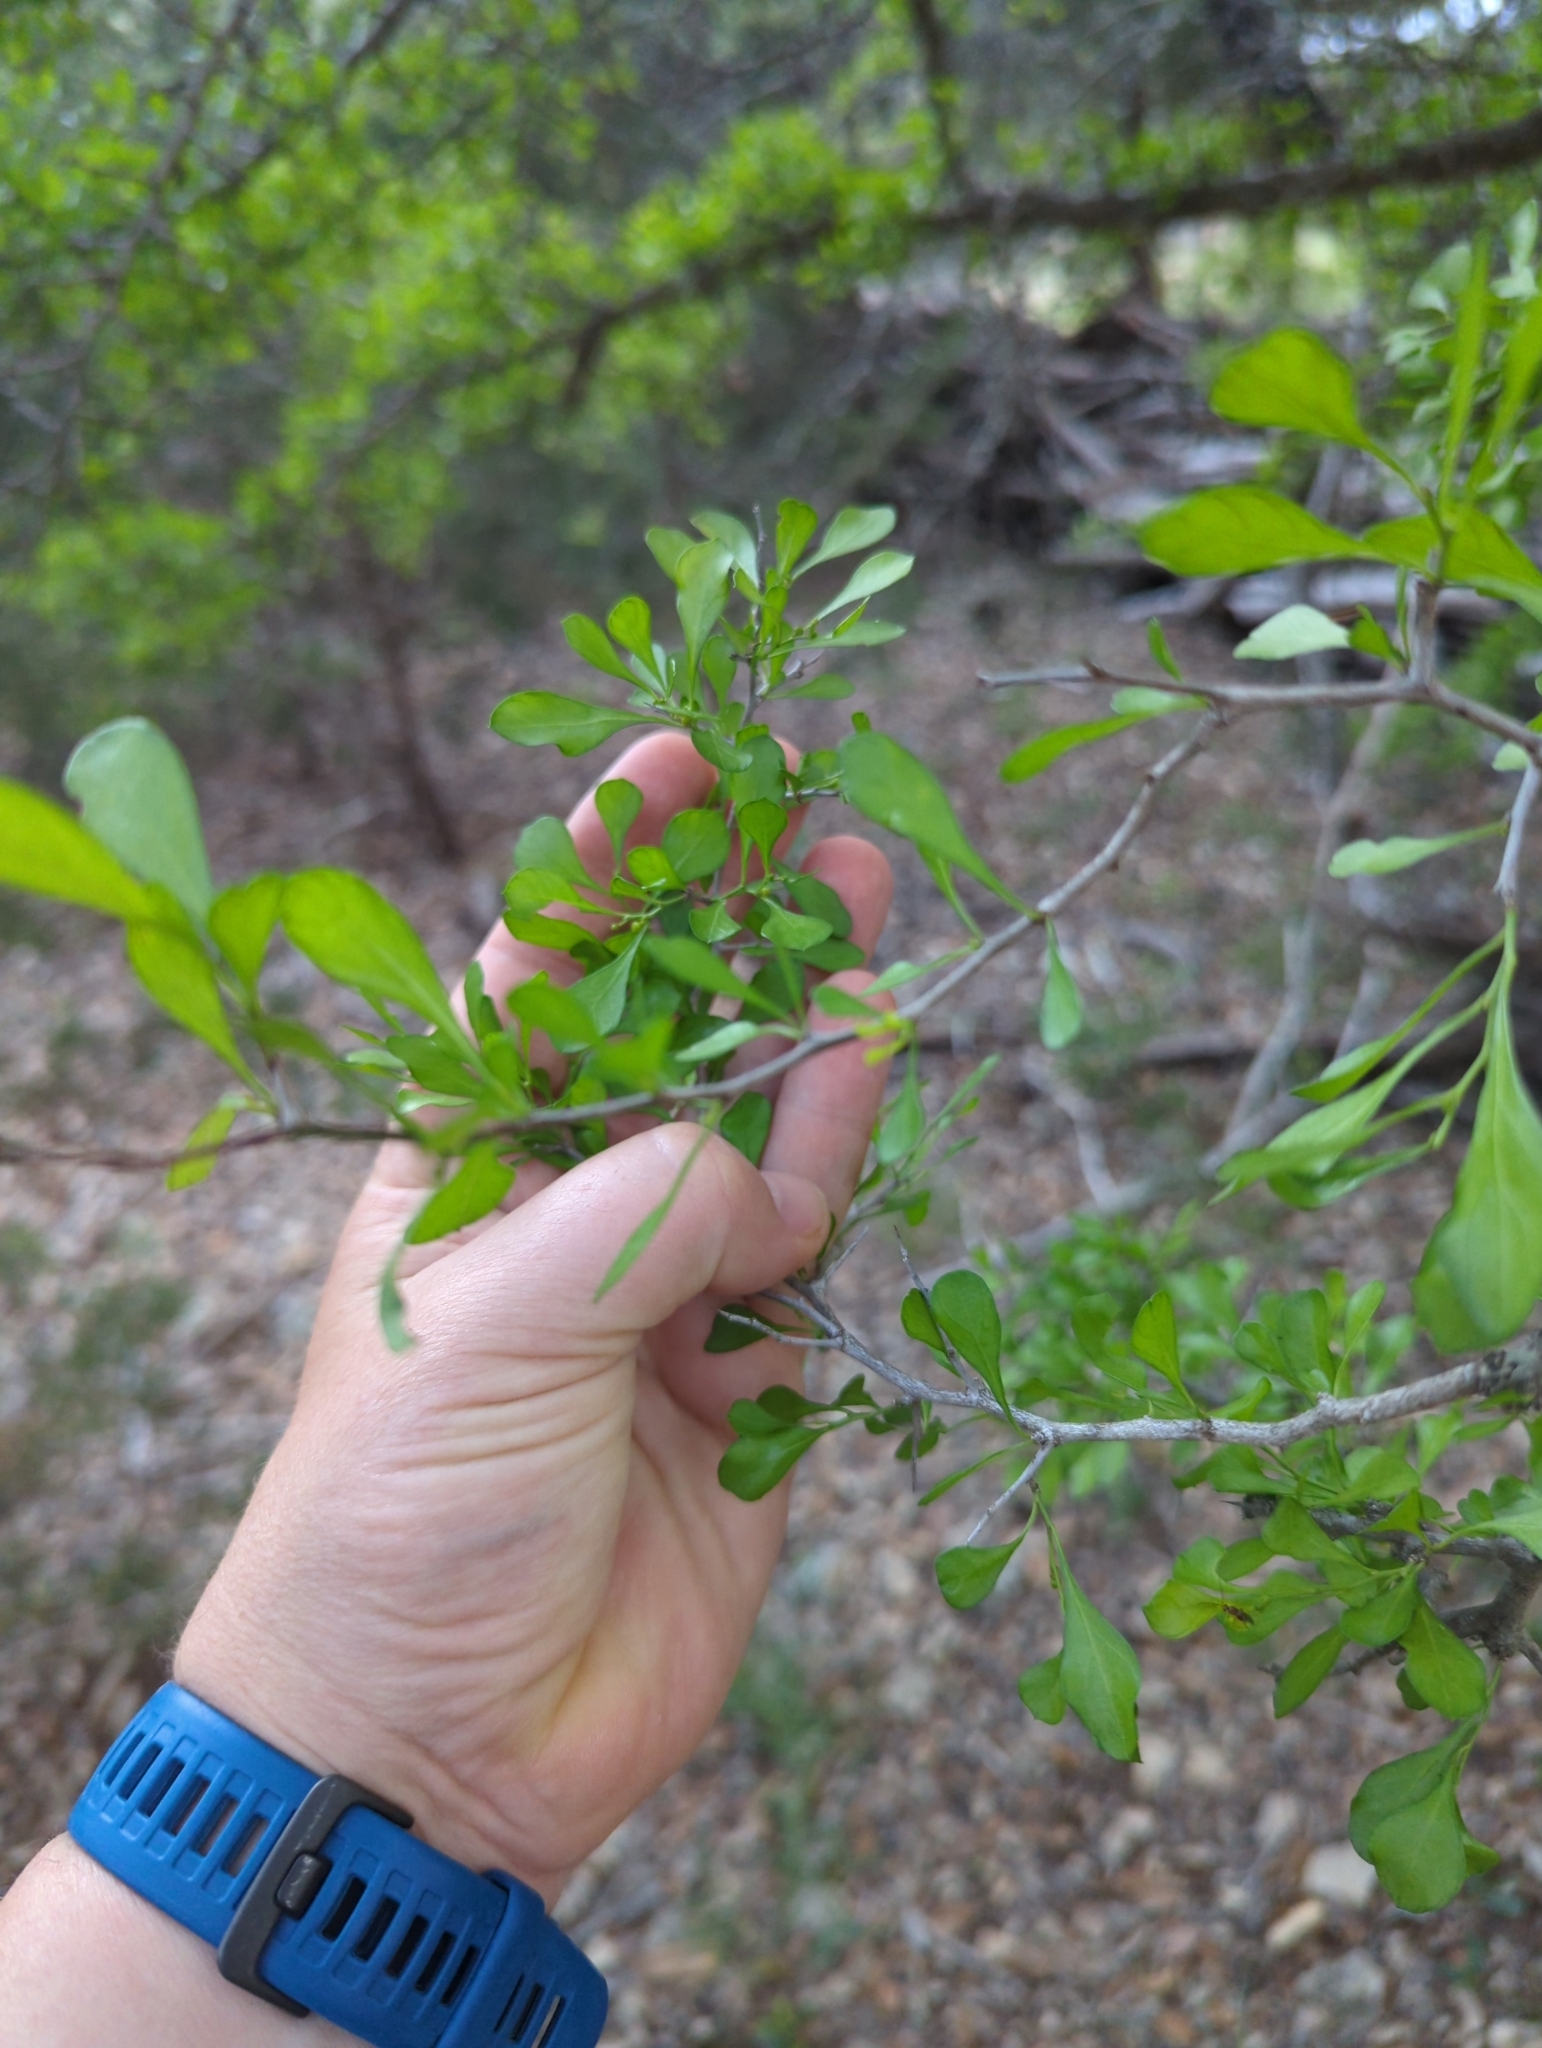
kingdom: Plantae
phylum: Tracheophyta
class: Magnoliopsida
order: Rosales
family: Rhamnaceae
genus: Condalia
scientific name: Condalia hookeri
